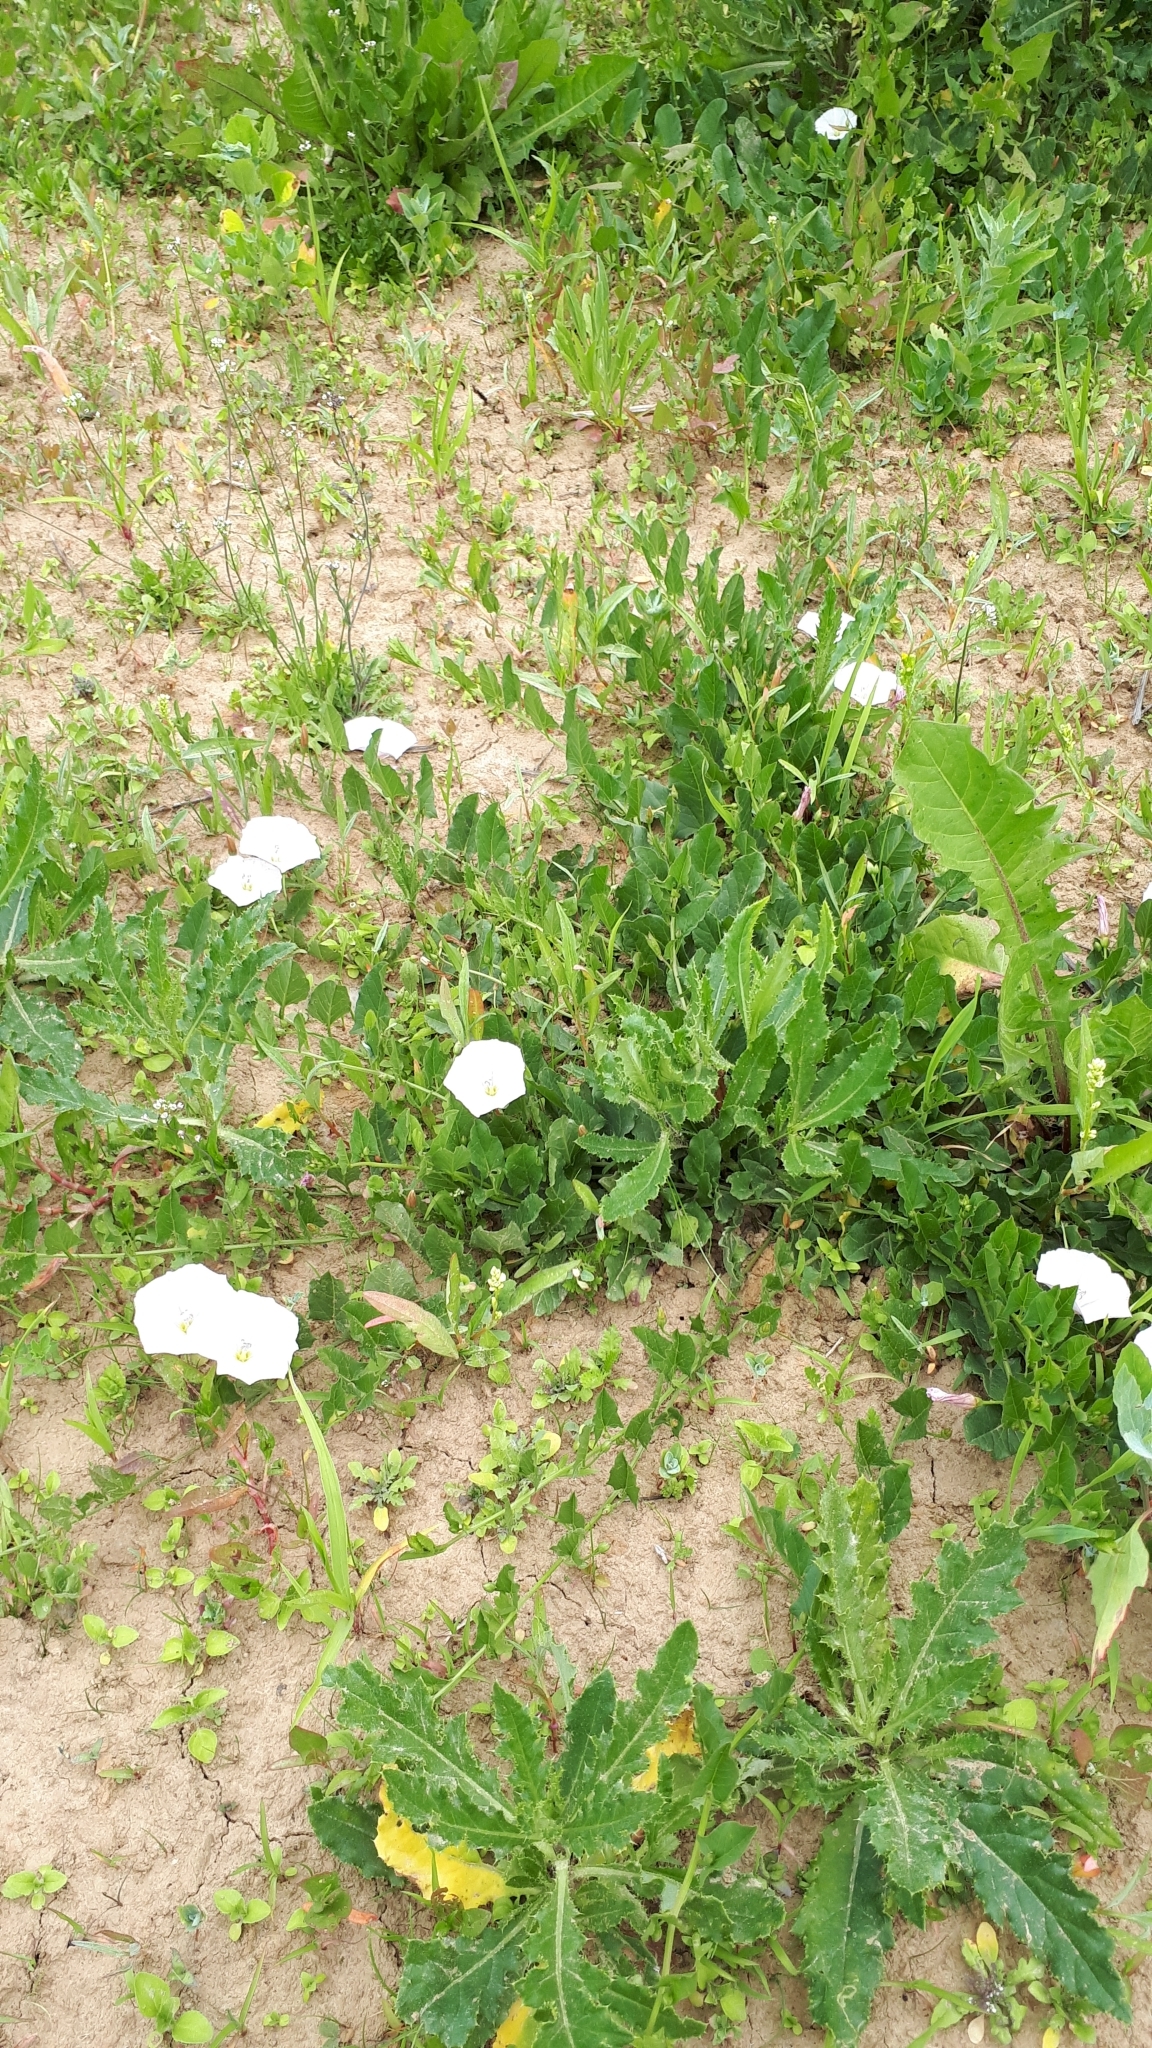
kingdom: Plantae
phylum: Tracheophyta
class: Magnoliopsida
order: Solanales
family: Convolvulaceae
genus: Convolvulus
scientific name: Convolvulus arvensis
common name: Field bindweed
